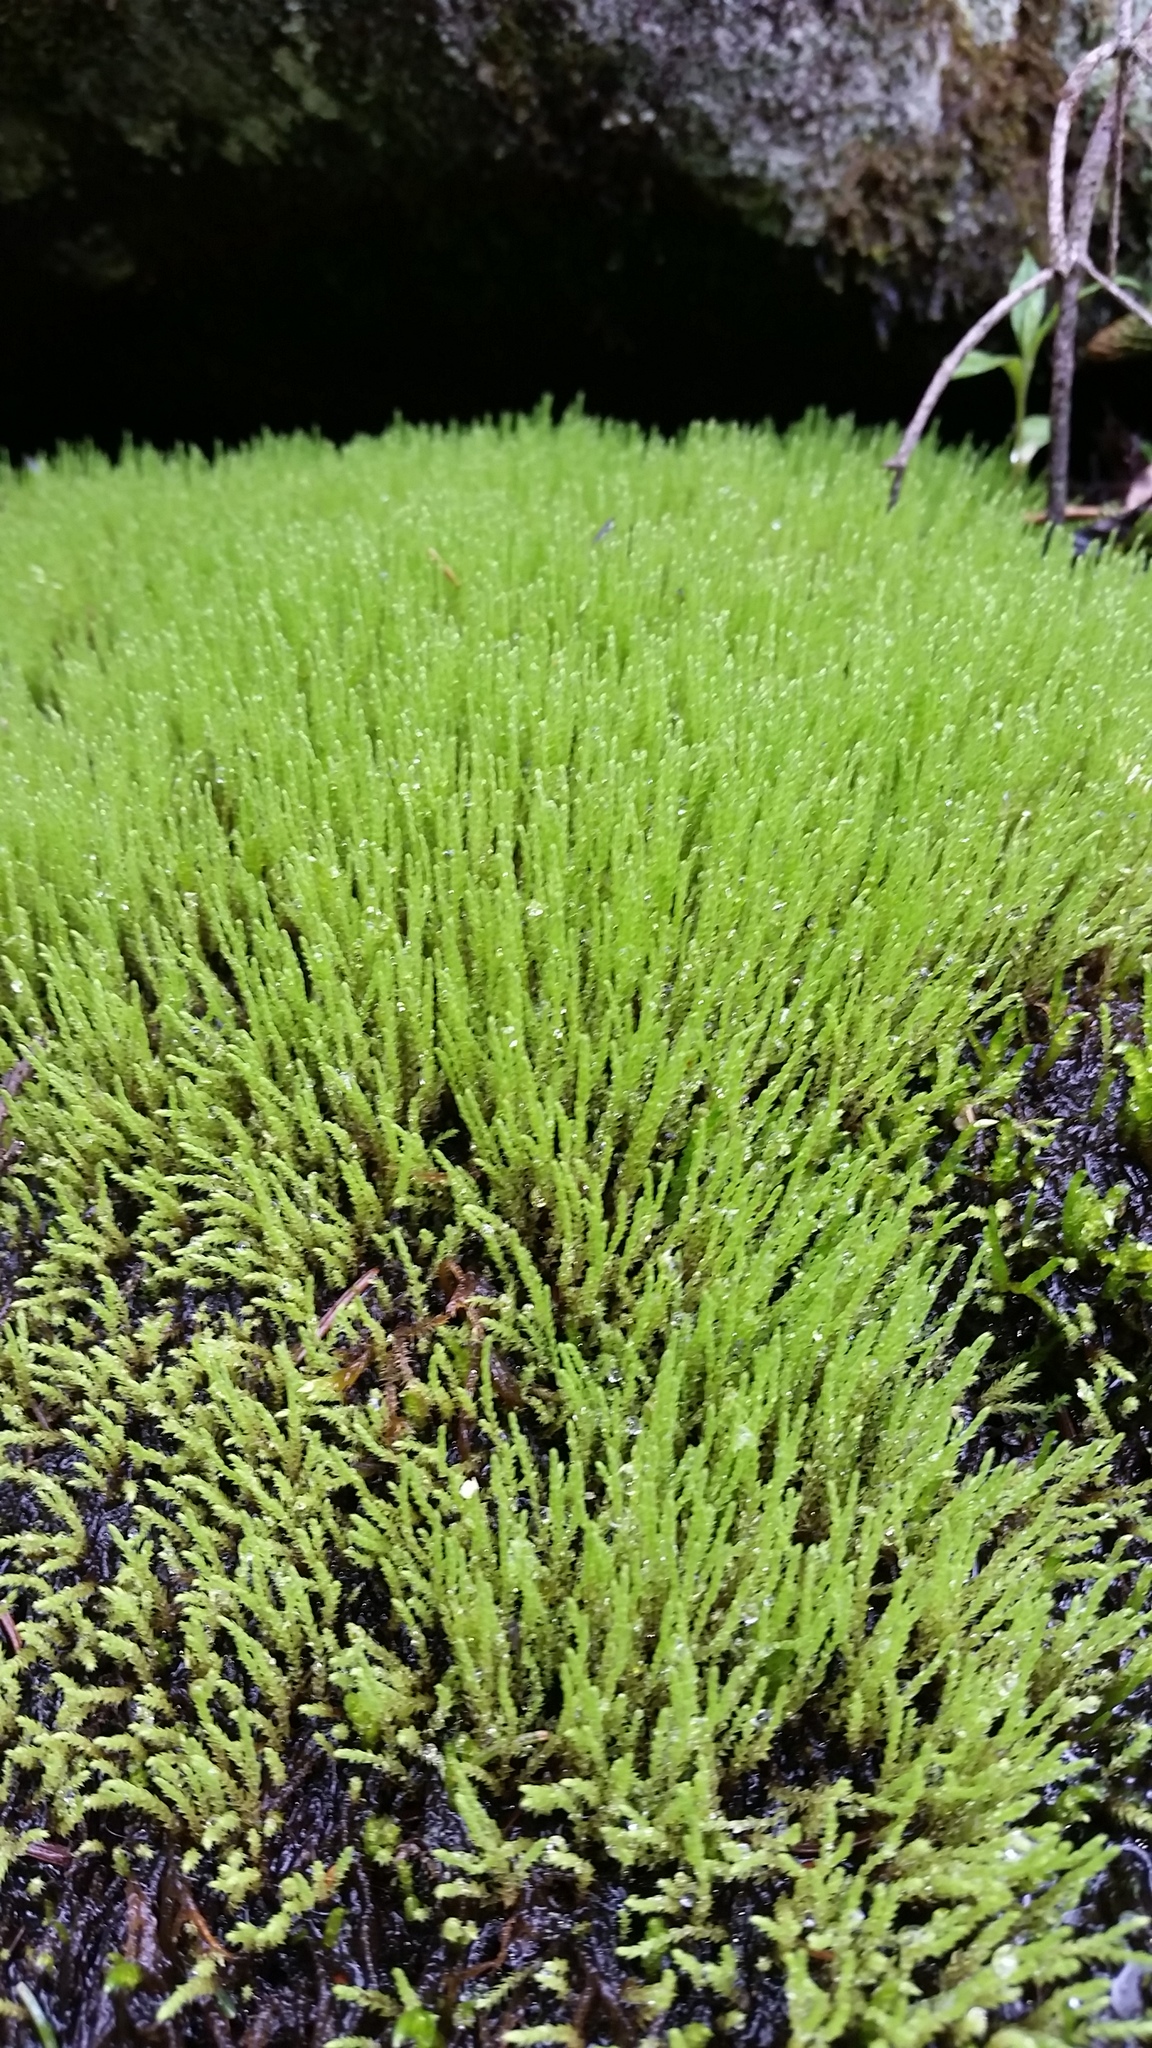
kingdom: Plantae
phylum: Bryophyta
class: Bryopsida
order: Bartramiales
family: Bartramiaceae
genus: Philonotis
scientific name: Philonotis fontana
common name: Fountain apple-moss
